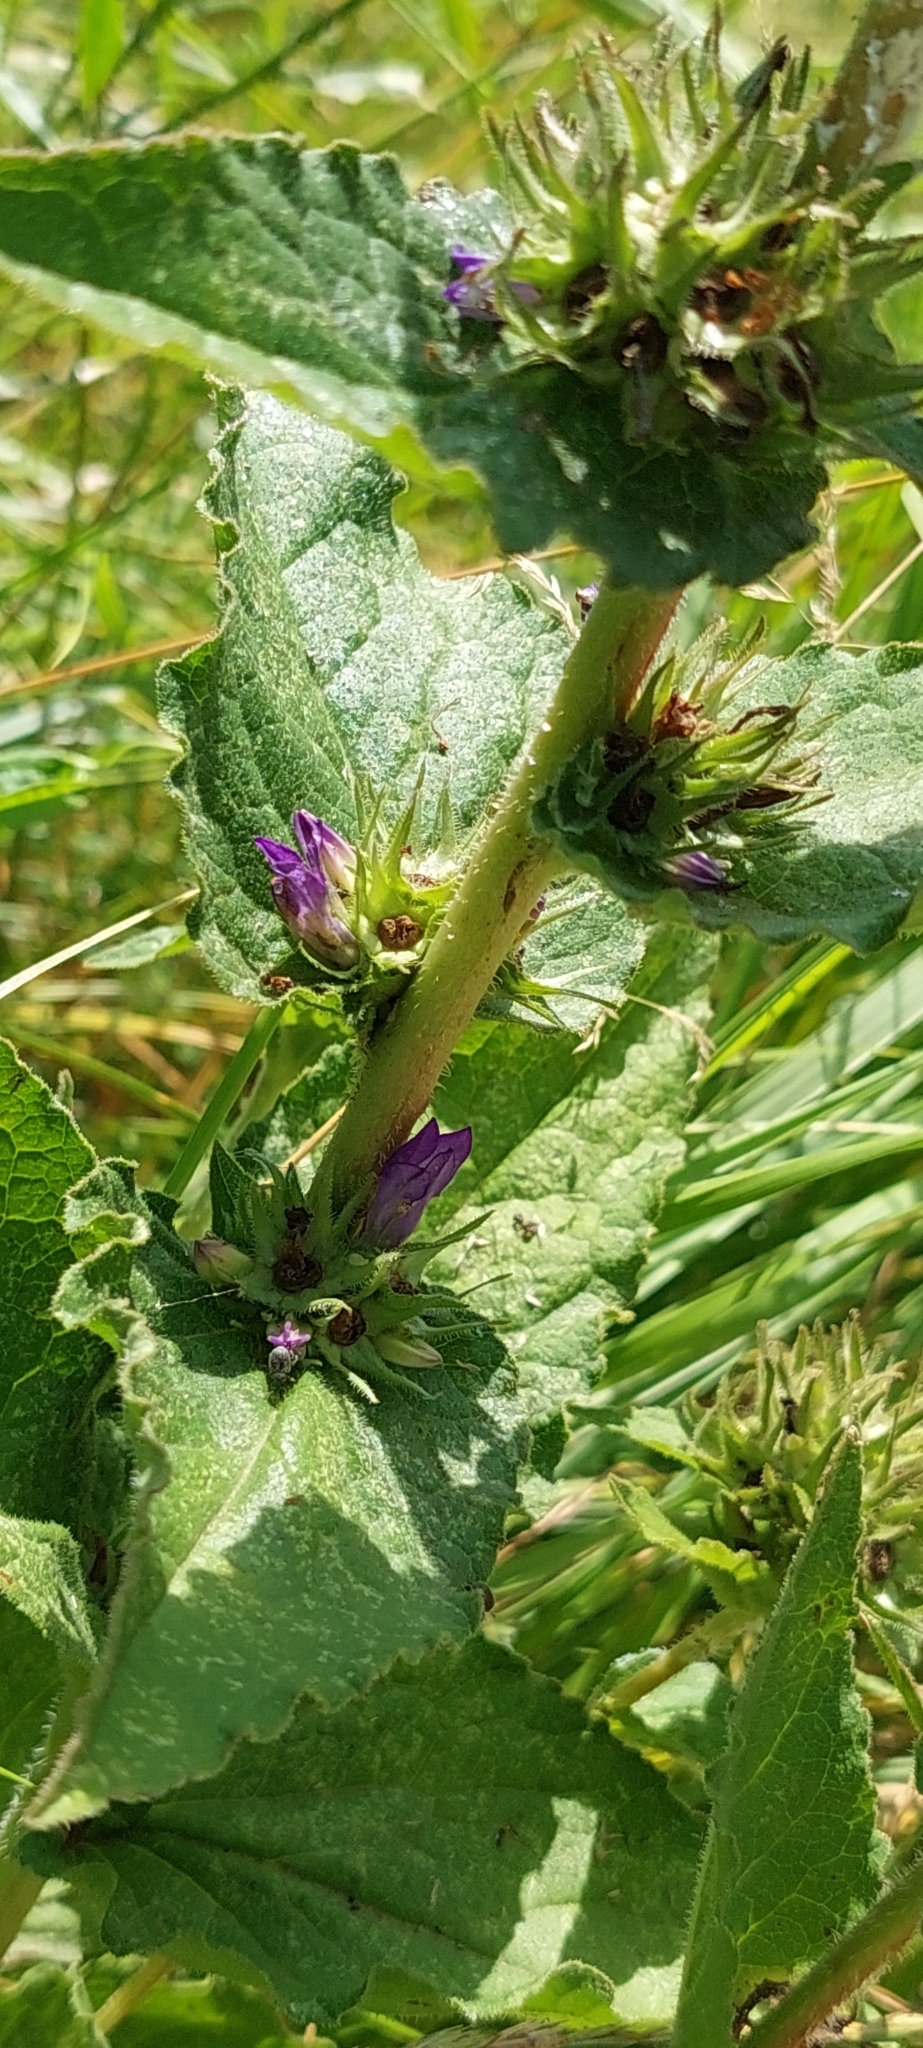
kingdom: Plantae
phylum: Tracheophyta
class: Magnoliopsida
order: Asterales
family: Campanulaceae
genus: Campanula
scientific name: Campanula glomerata
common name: Clustered bellflower
